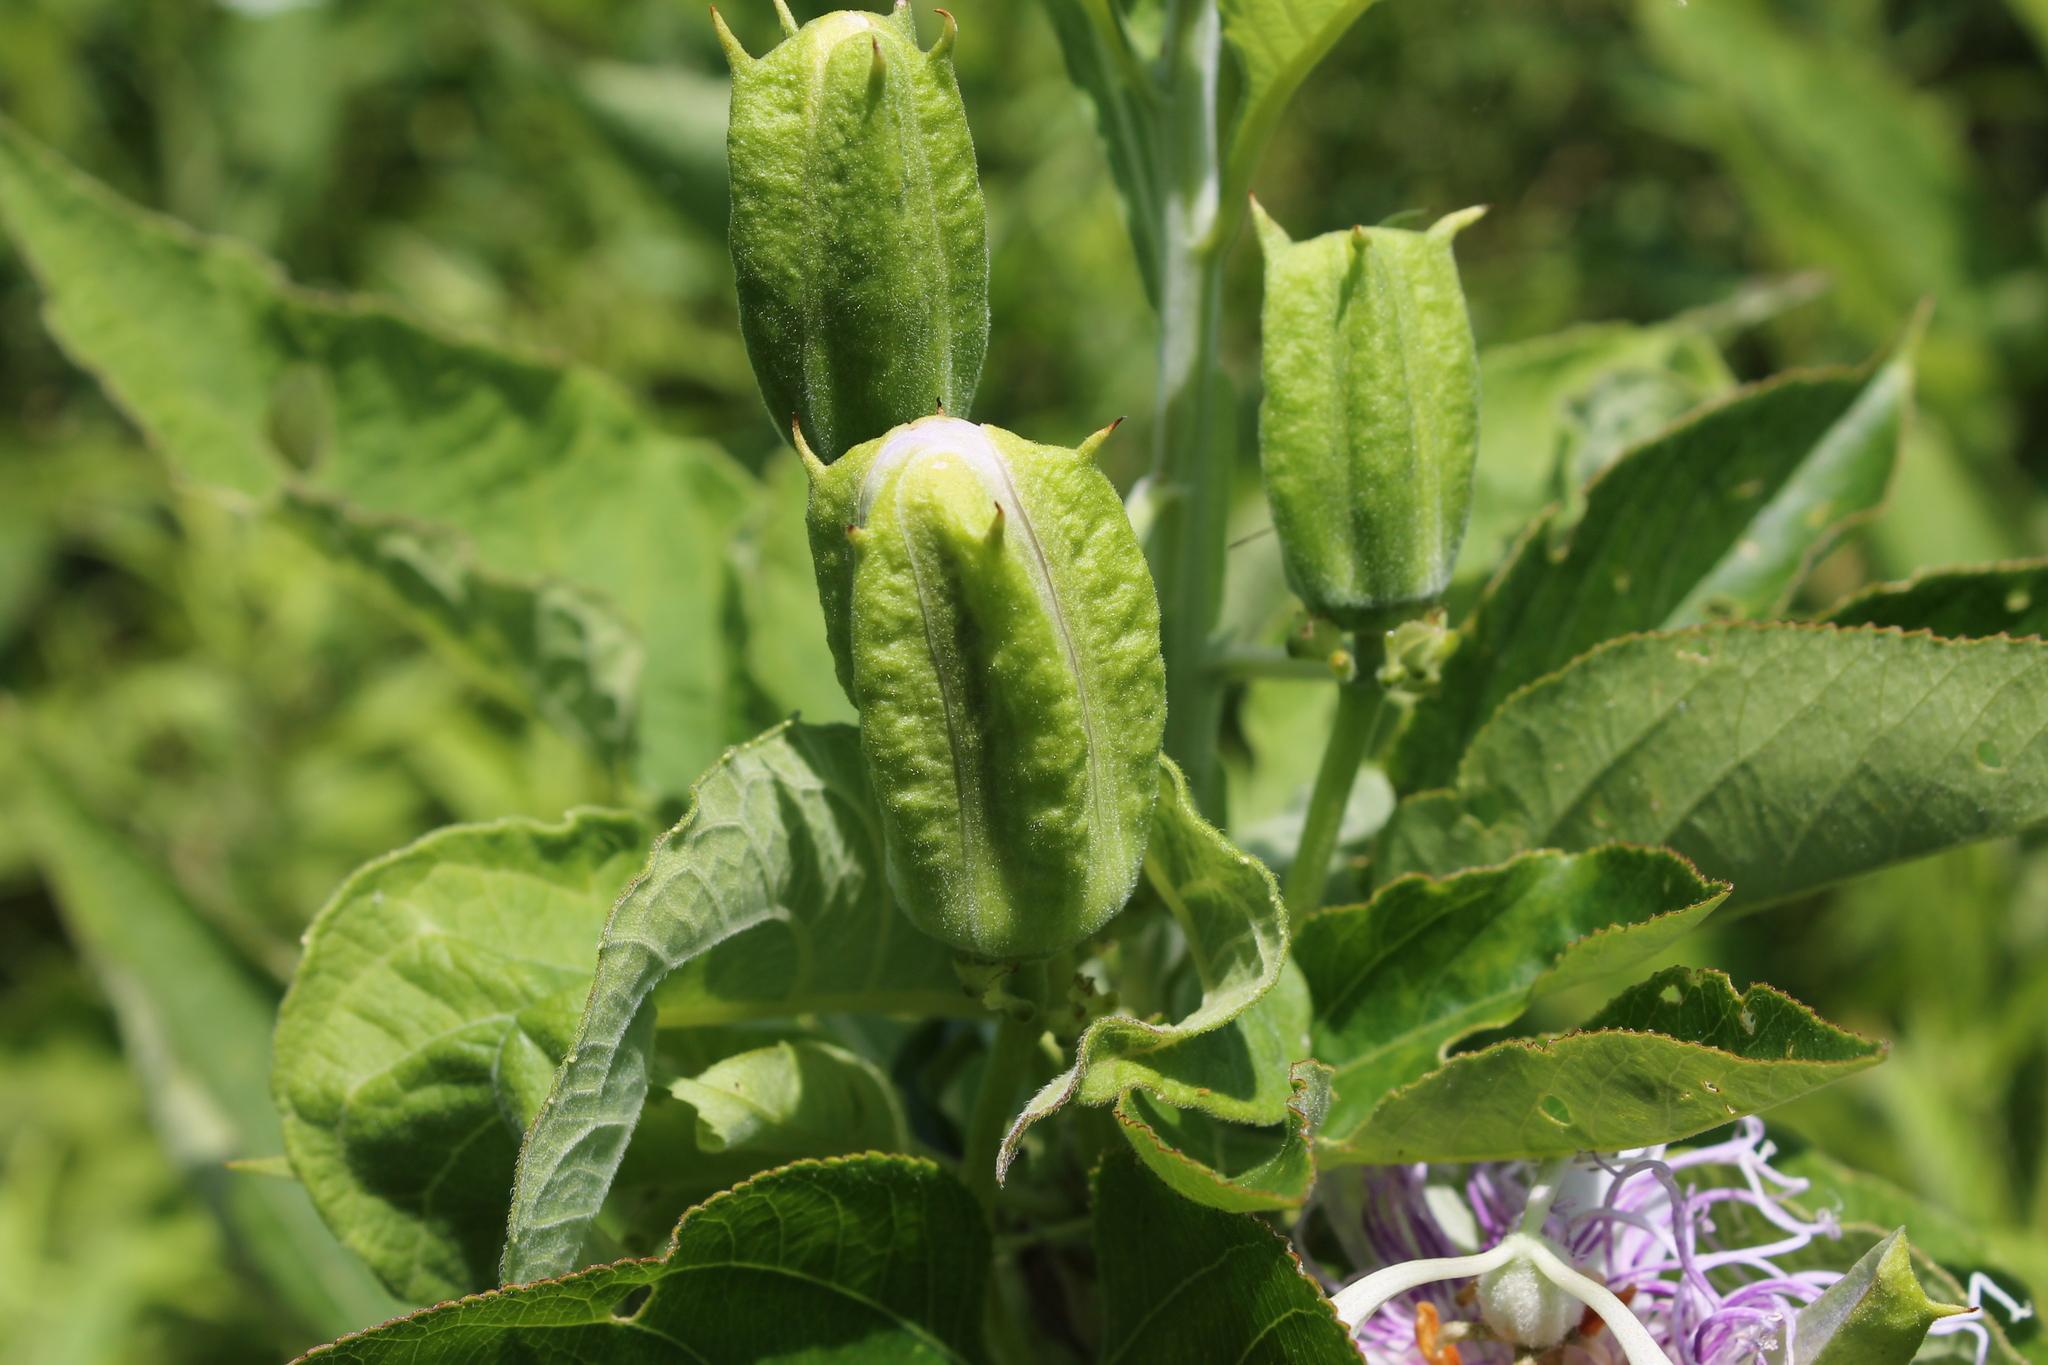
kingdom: Plantae
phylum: Tracheophyta
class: Magnoliopsida
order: Malpighiales
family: Passifloraceae
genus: Passiflora
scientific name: Passiflora incarnata
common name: Apricot-vine
